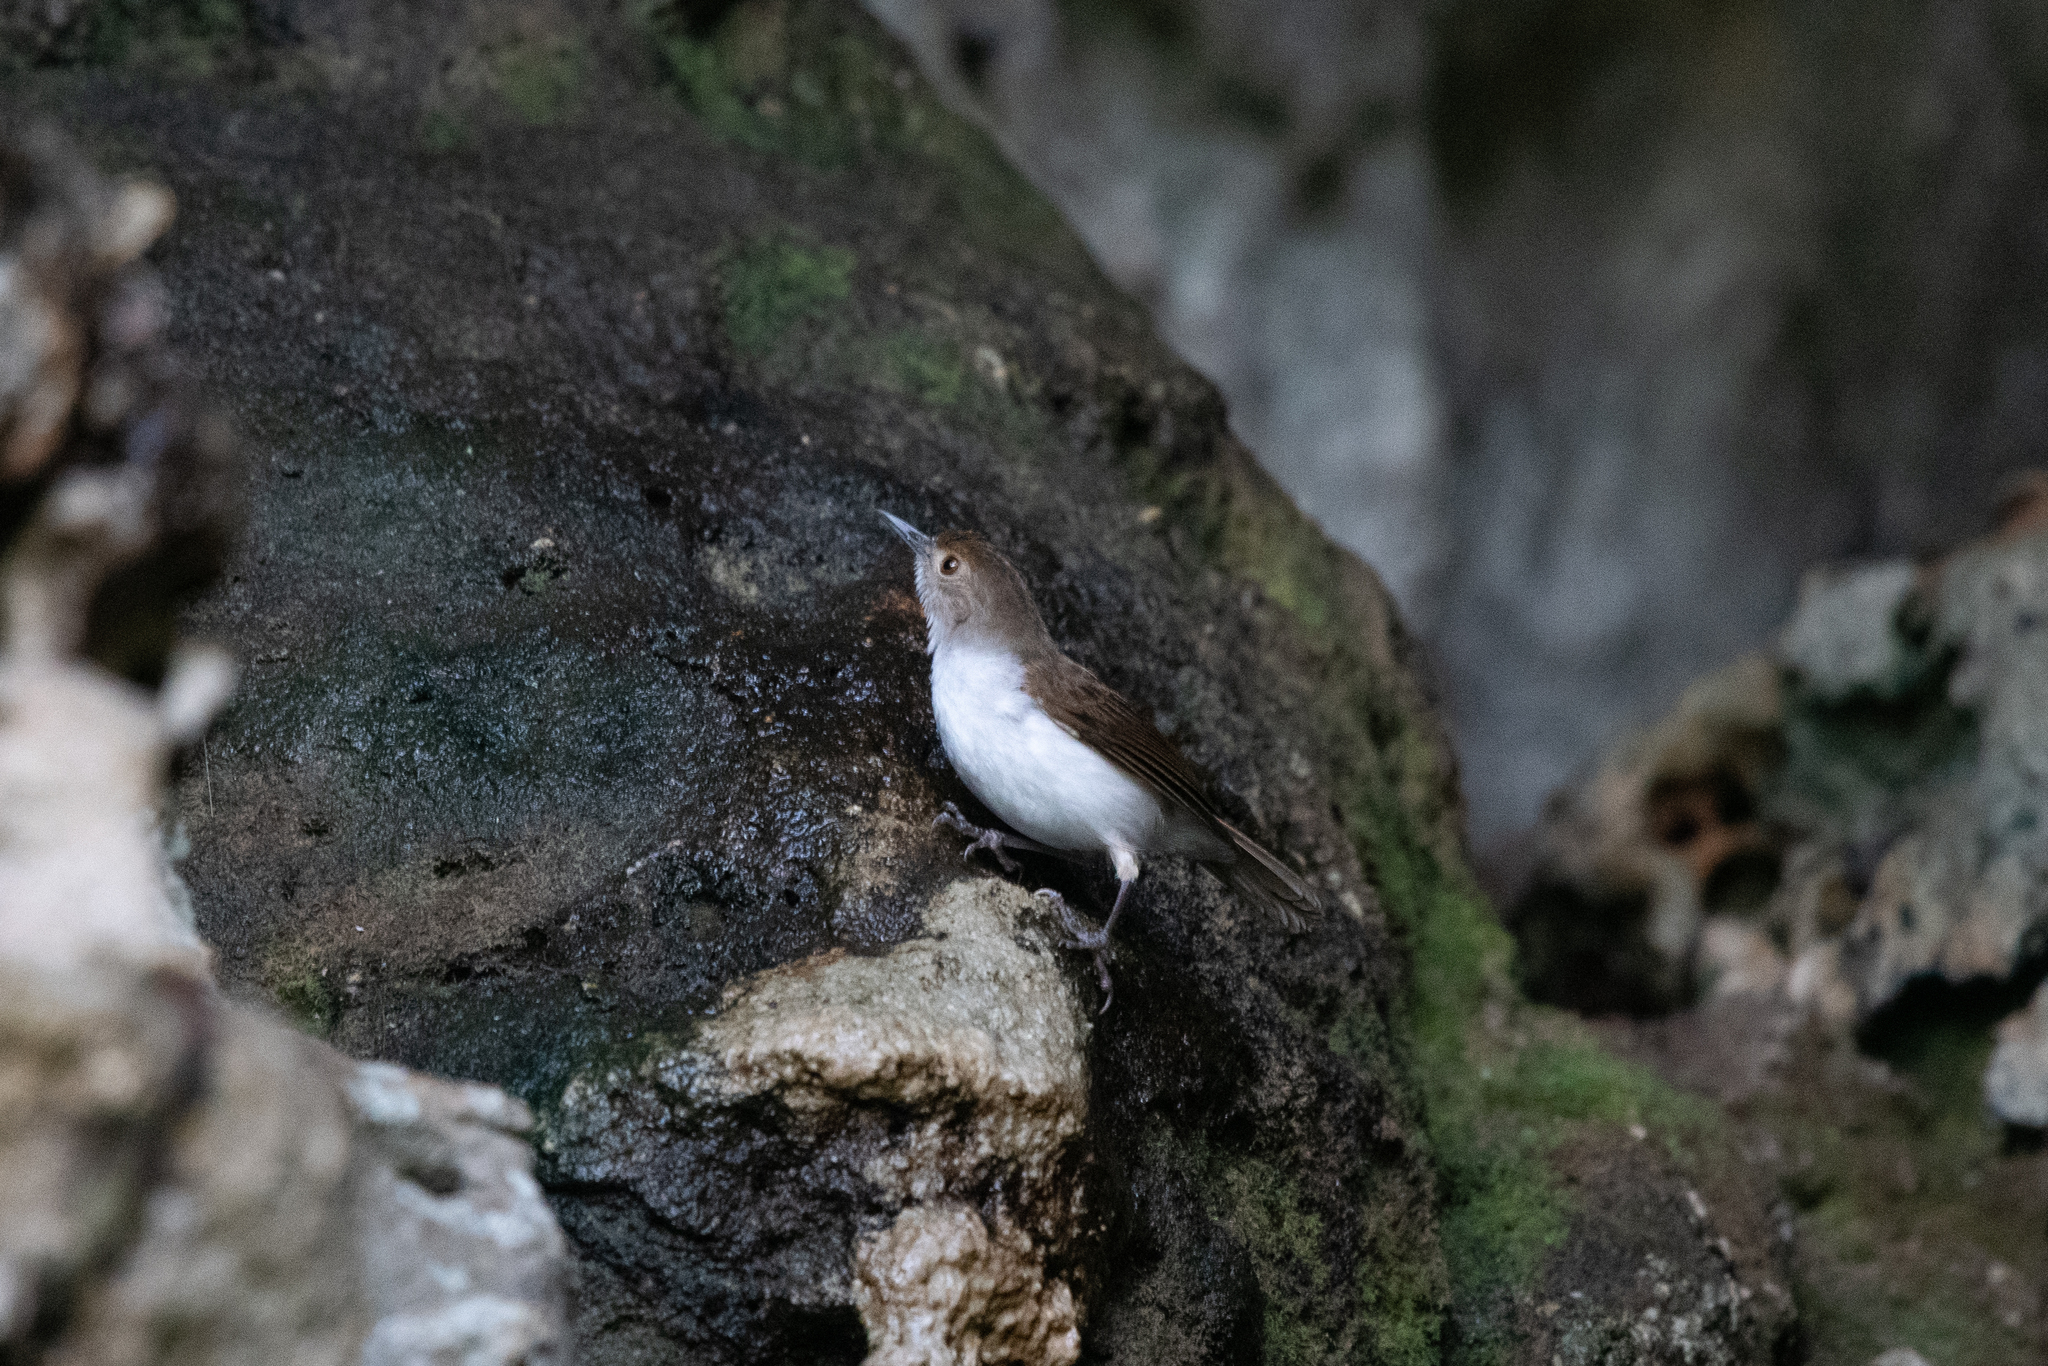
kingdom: Animalia
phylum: Chordata
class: Aves
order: Passeriformes
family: Pellorneidae
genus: Trichastoma
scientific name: Trichastoma rostratum
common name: White-chested babbler
